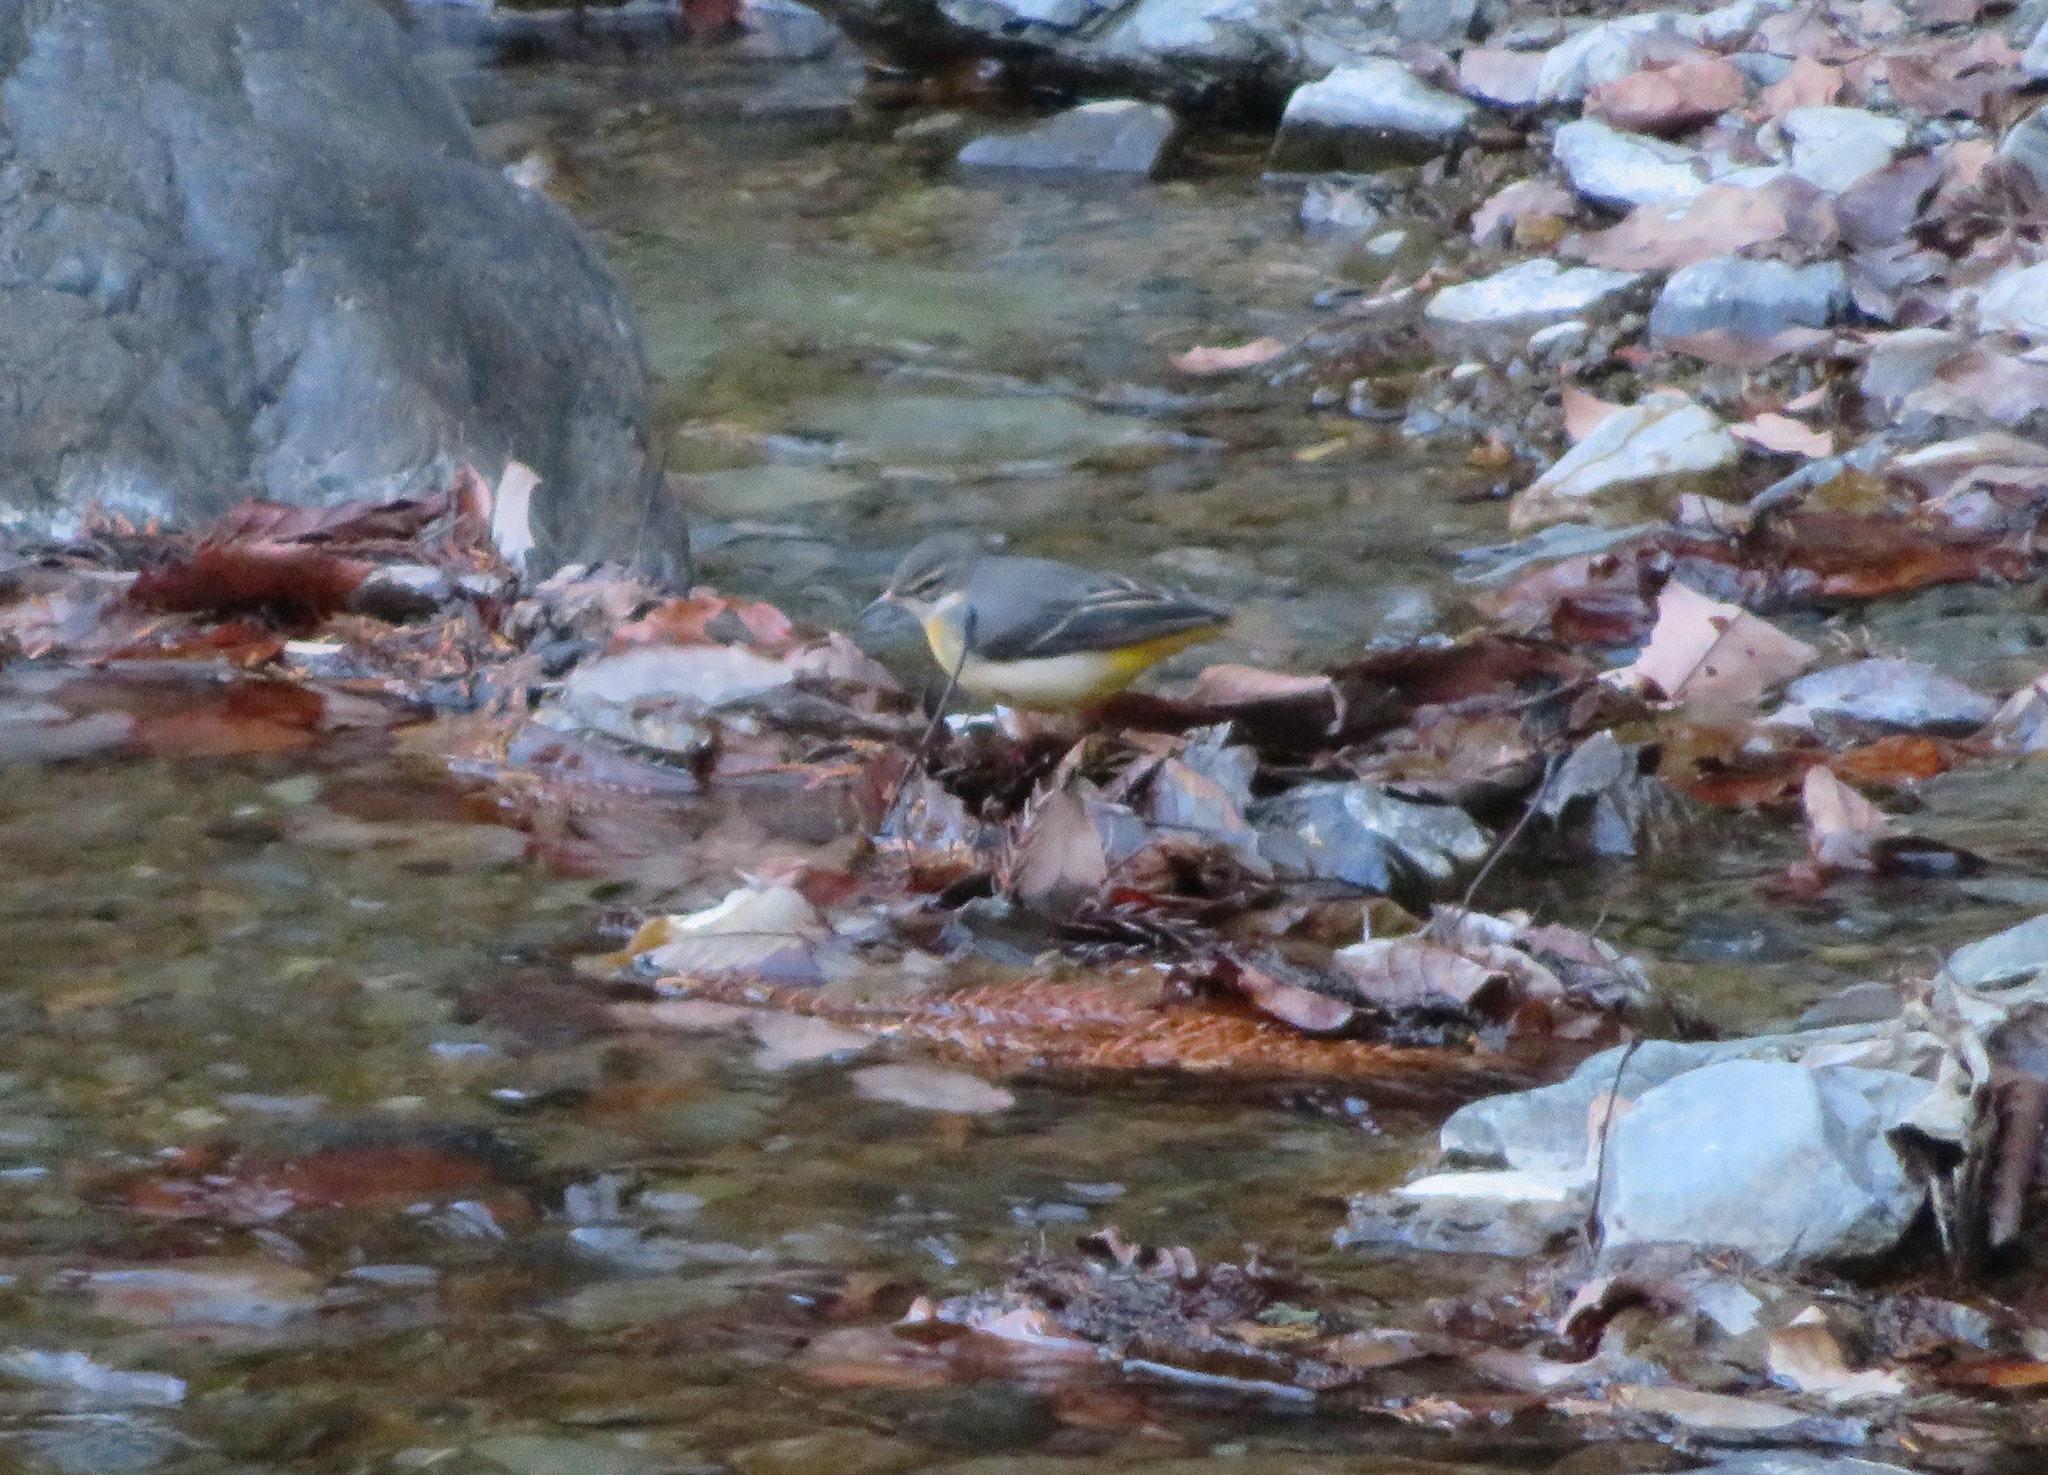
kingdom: Animalia
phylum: Chordata
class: Aves
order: Passeriformes
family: Motacillidae
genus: Motacilla
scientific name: Motacilla cinerea
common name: Grey wagtail
